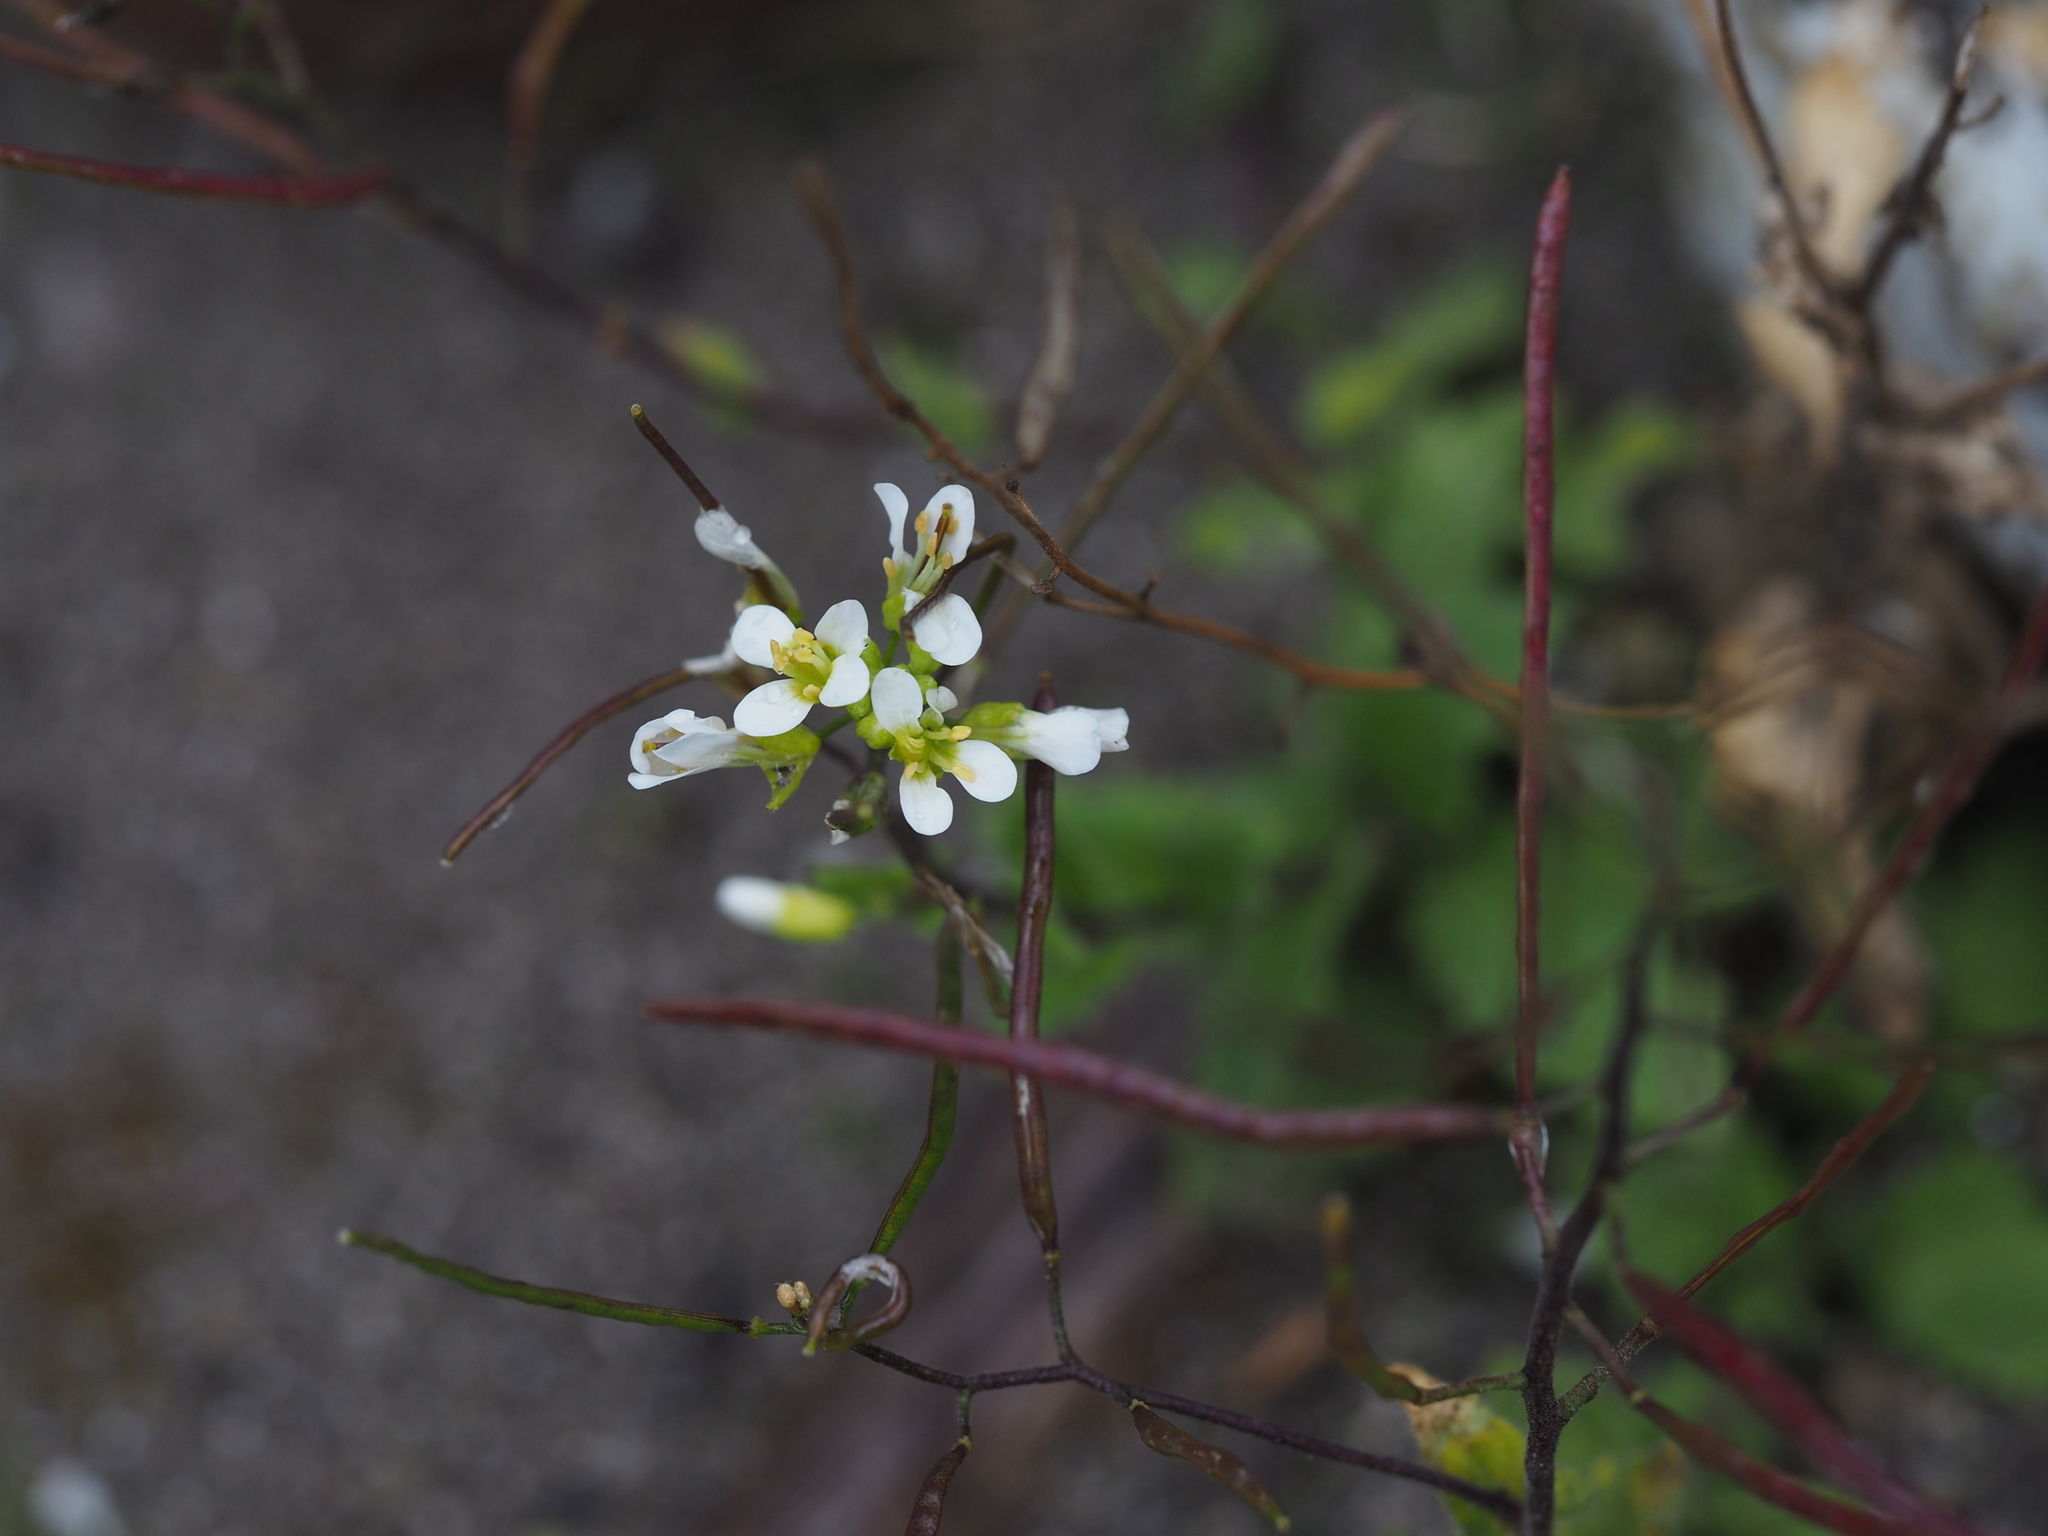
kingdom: Plantae
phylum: Tracheophyta
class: Magnoliopsida
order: Brassicales
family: Brassicaceae
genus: Arabis
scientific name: Arabis alpina
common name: Alpine rock-cress
